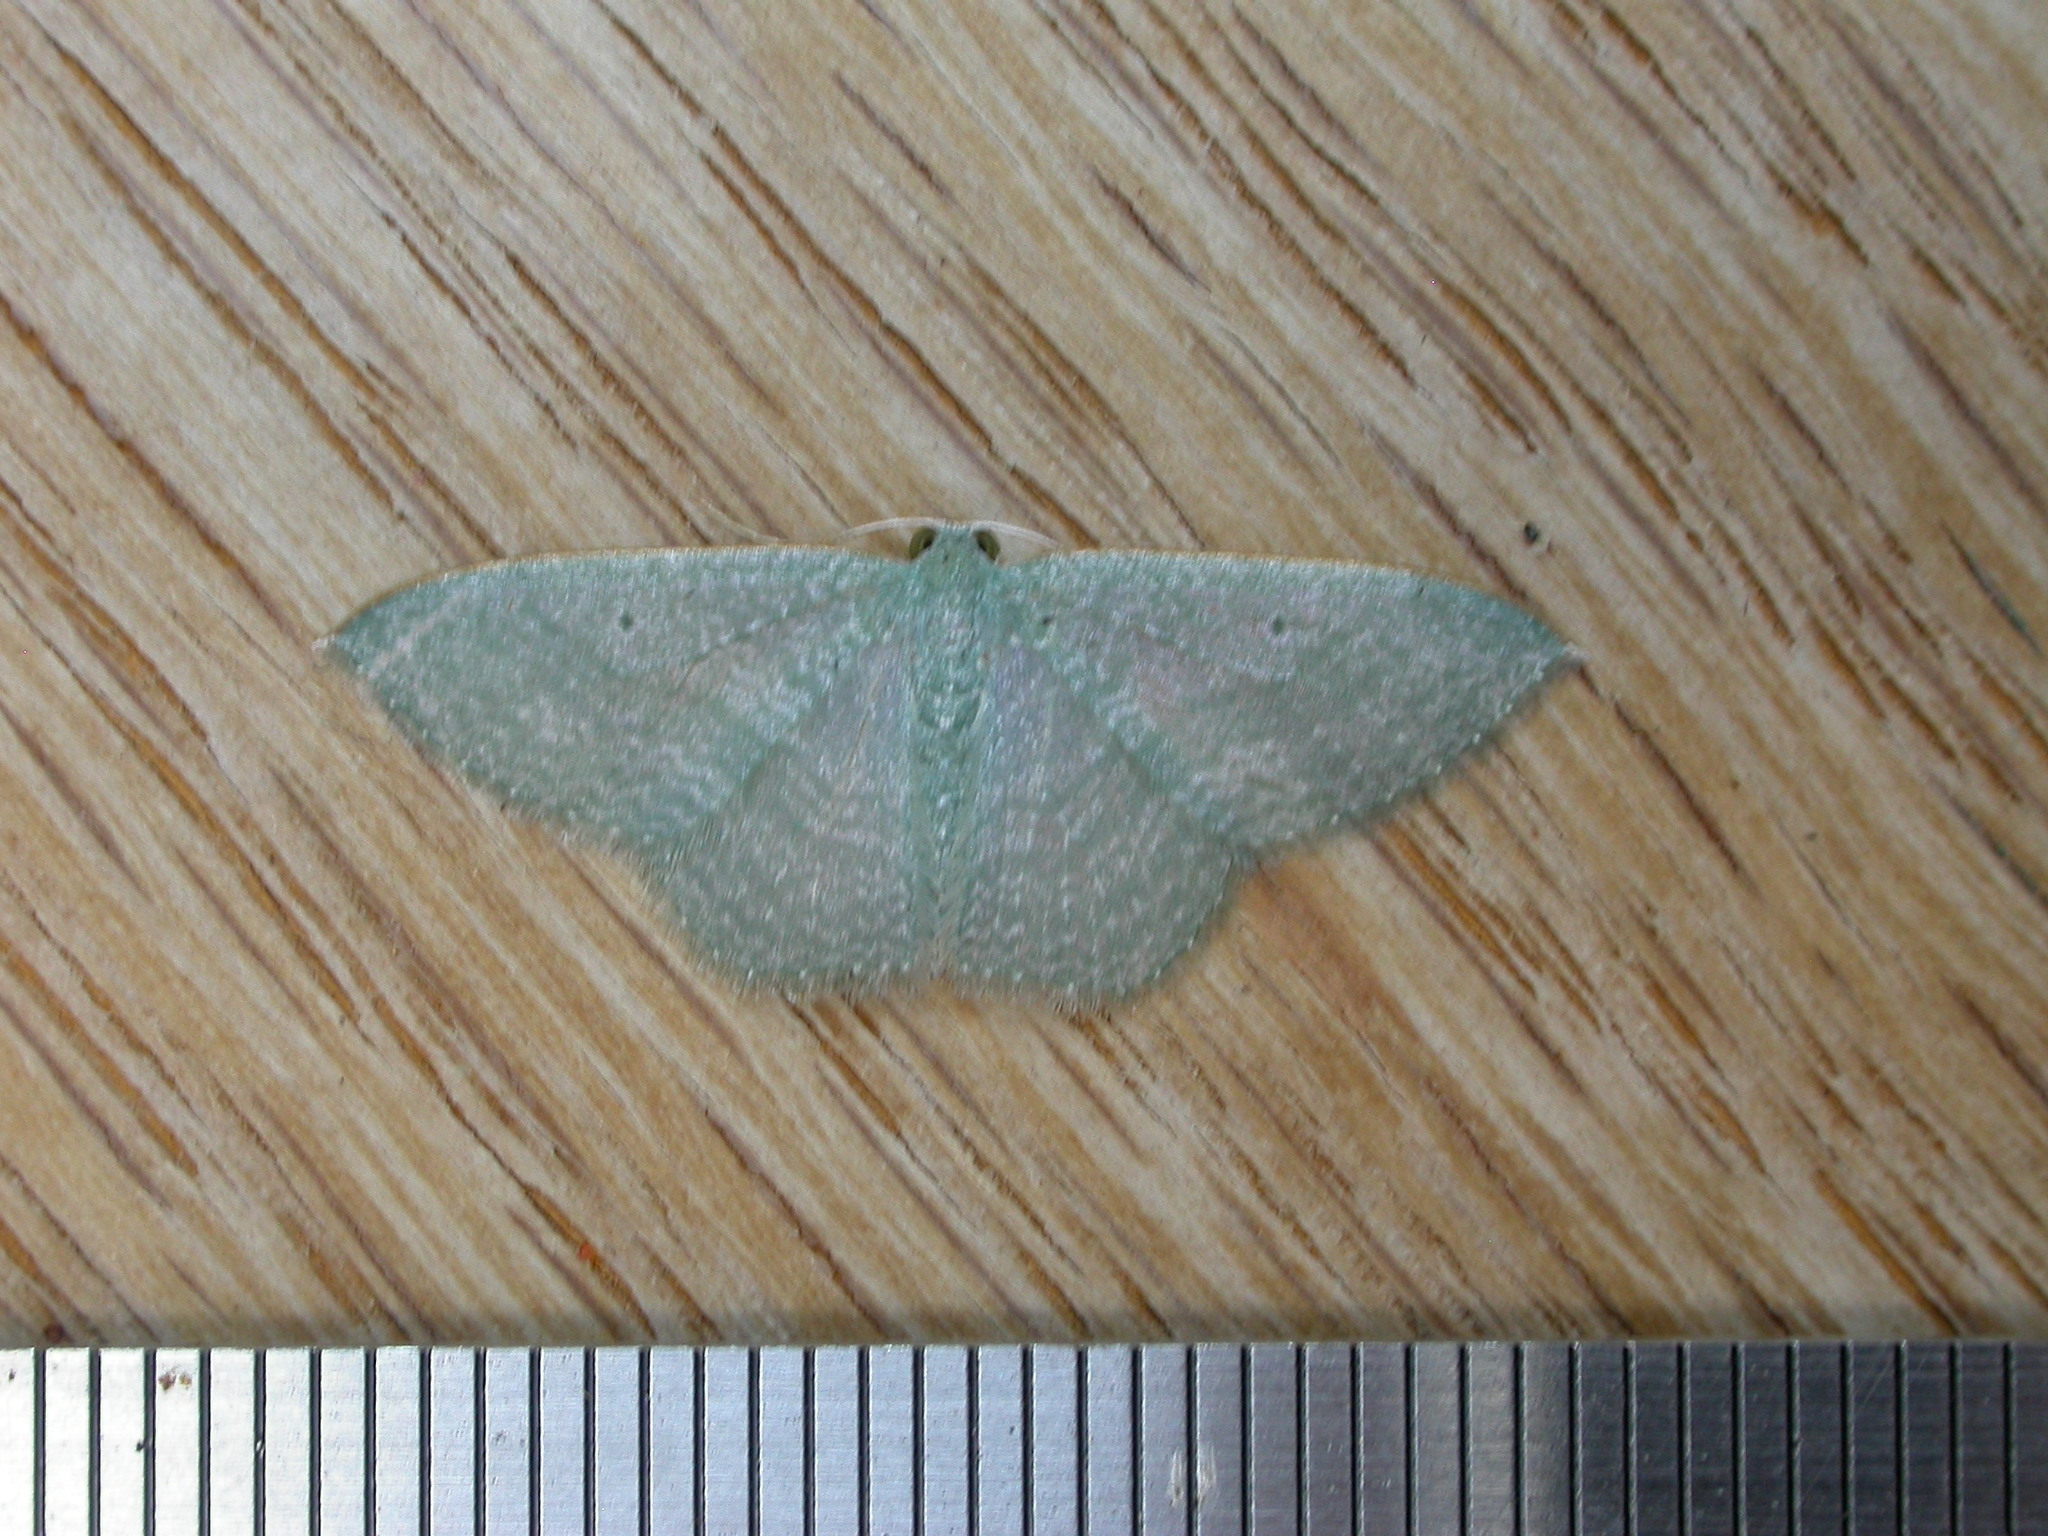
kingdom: Animalia
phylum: Arthropoda
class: Insecta
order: Lepidoptera
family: Geometridae
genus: Poecilasthena
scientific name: Poecilasthena thalassias
